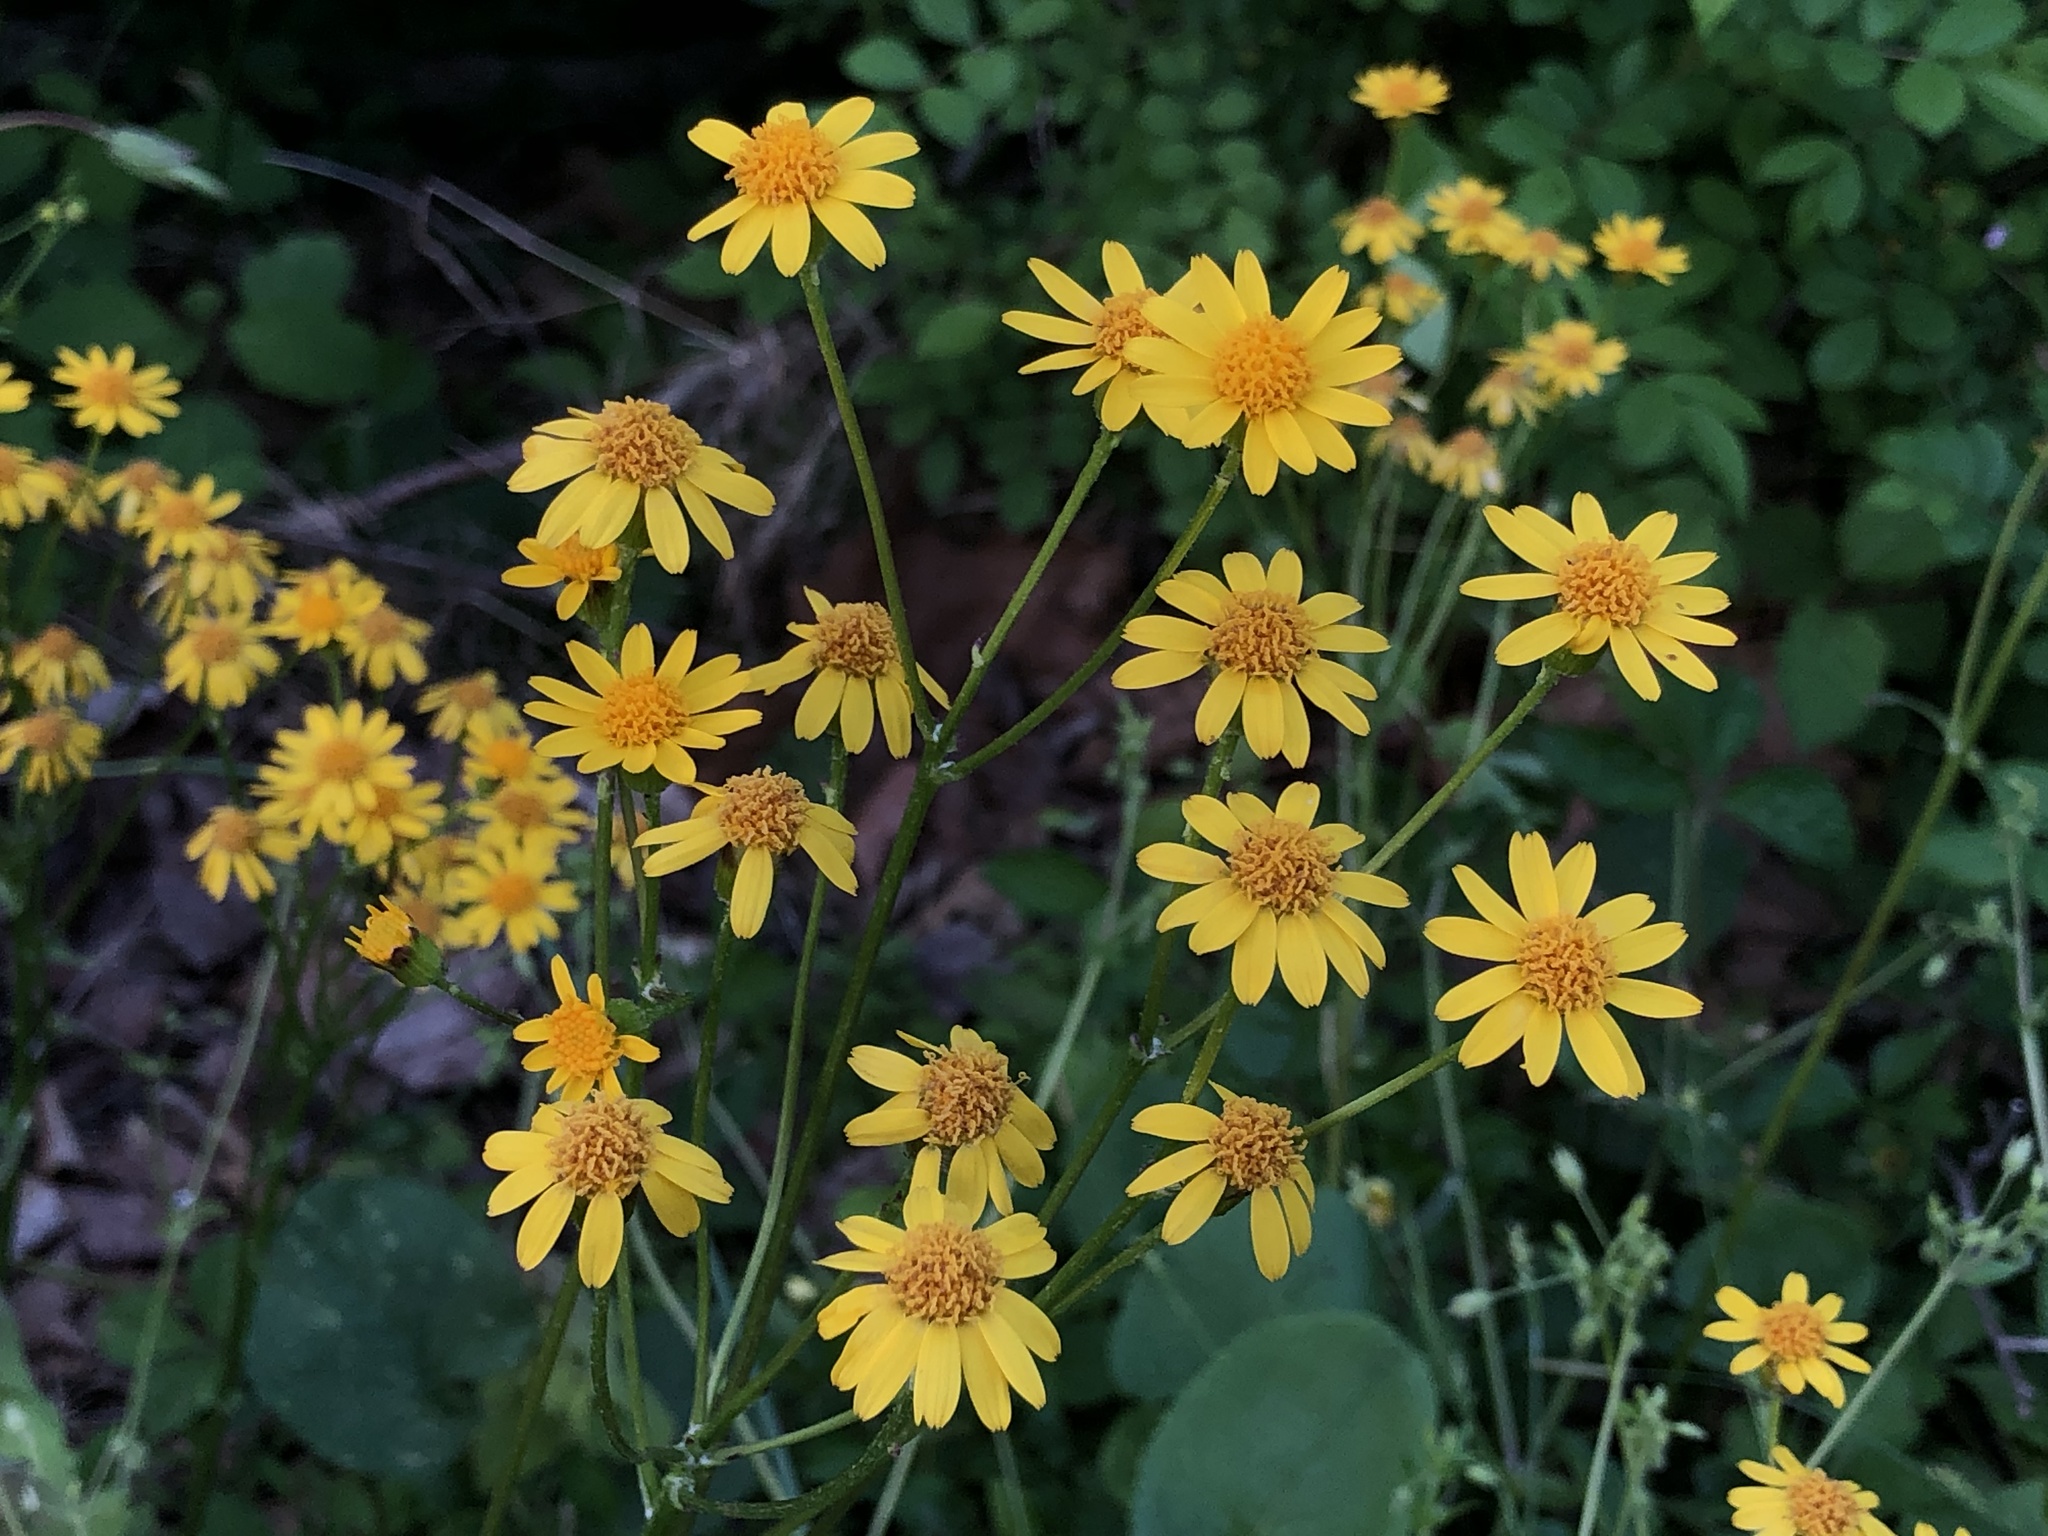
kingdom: Plantae
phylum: Tracheophyta
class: Magnoliopsida
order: Asterales
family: Asteraceae
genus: Packera
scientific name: Packera aurea
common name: Golden groundsel
